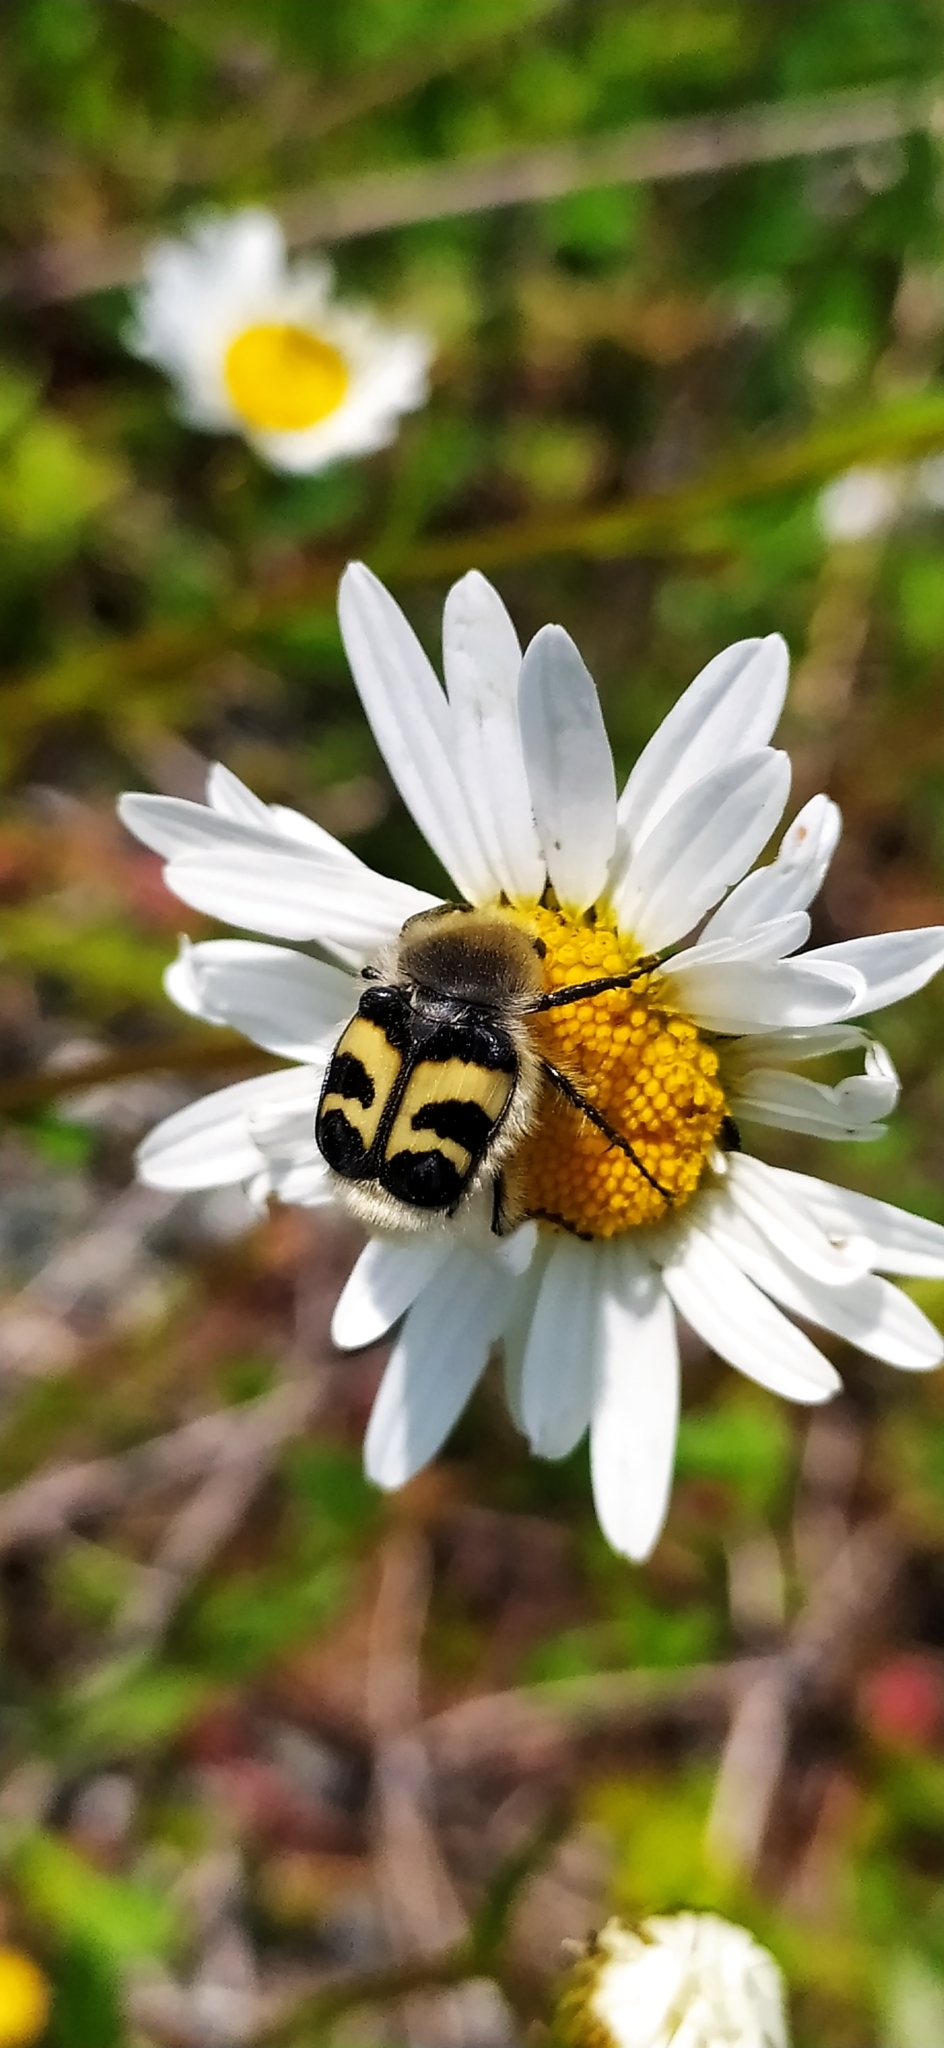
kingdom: Animalia
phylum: Arthropoda
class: Insecta
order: Coleoptera
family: Scarabaeidae
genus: Trichius
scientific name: Trichius fasciatus
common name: Bee beetle
